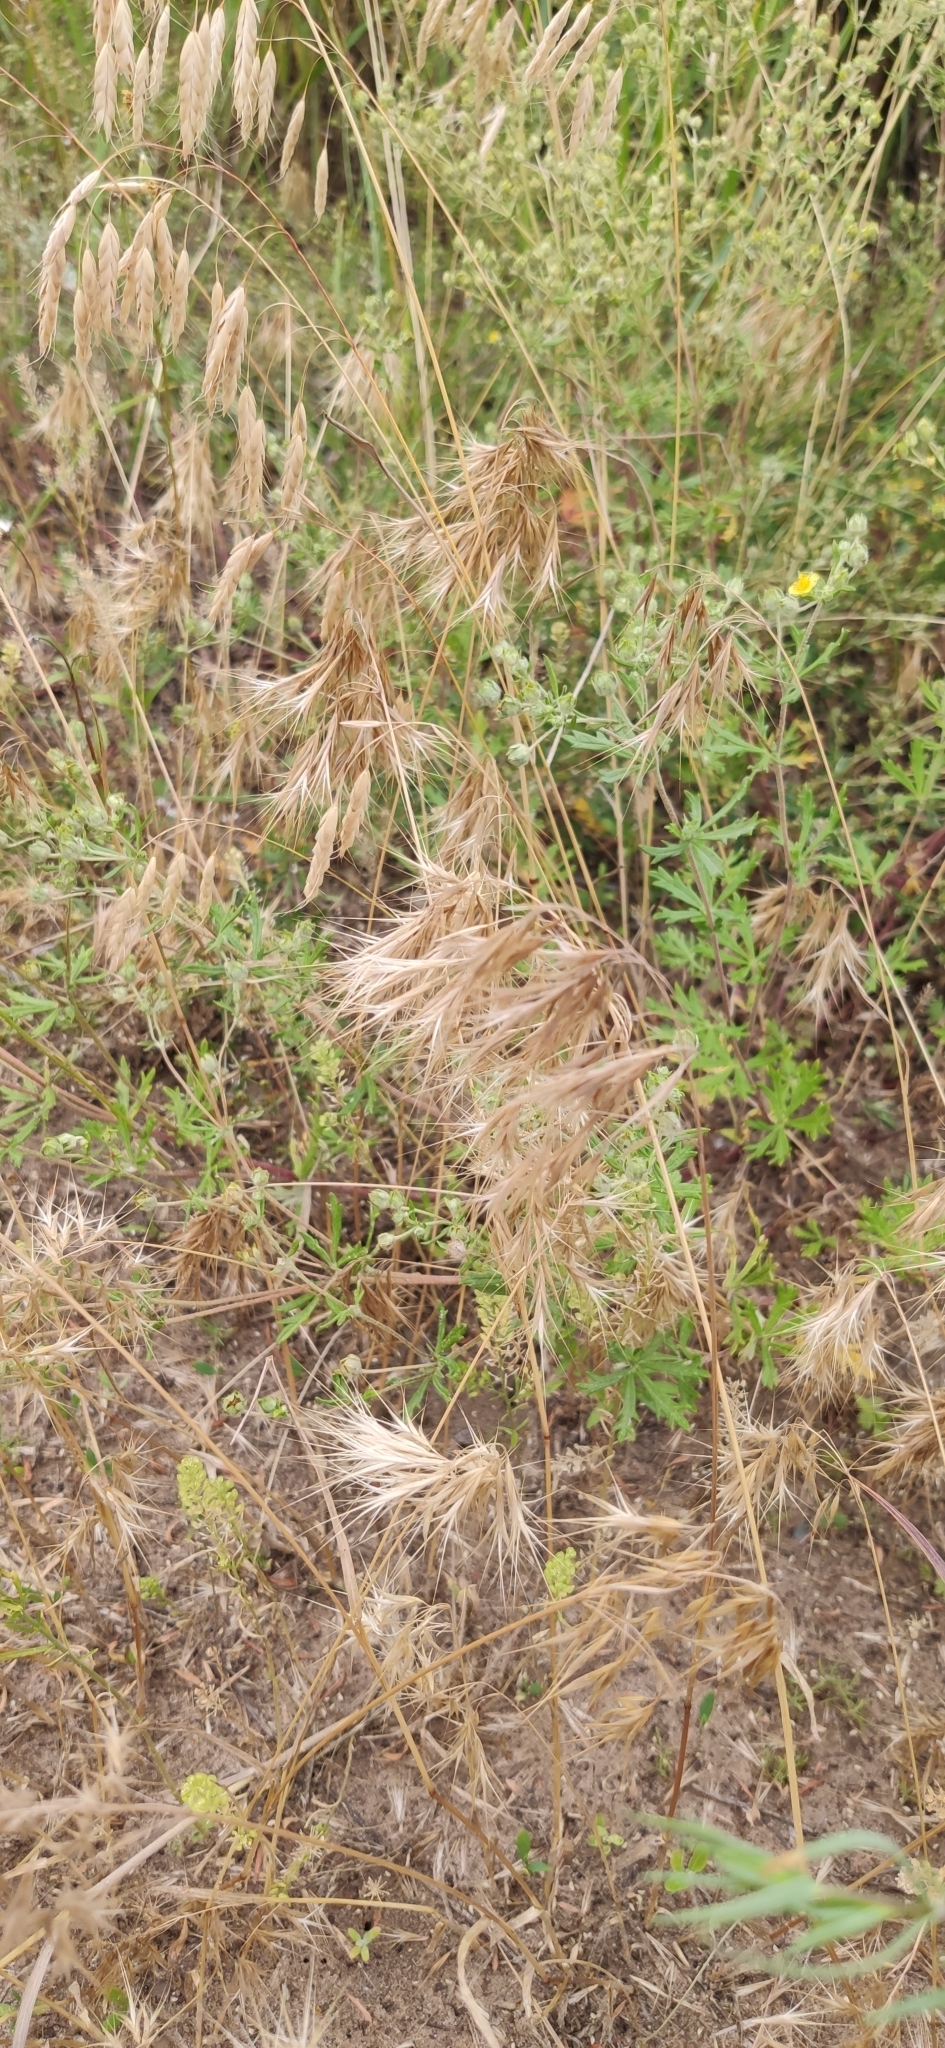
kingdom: Plantae
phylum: Tracheophyta
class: Liliopsida
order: Poales
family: Poaceae
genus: Bromus
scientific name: Bromus tectorum
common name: Cheatgrass
